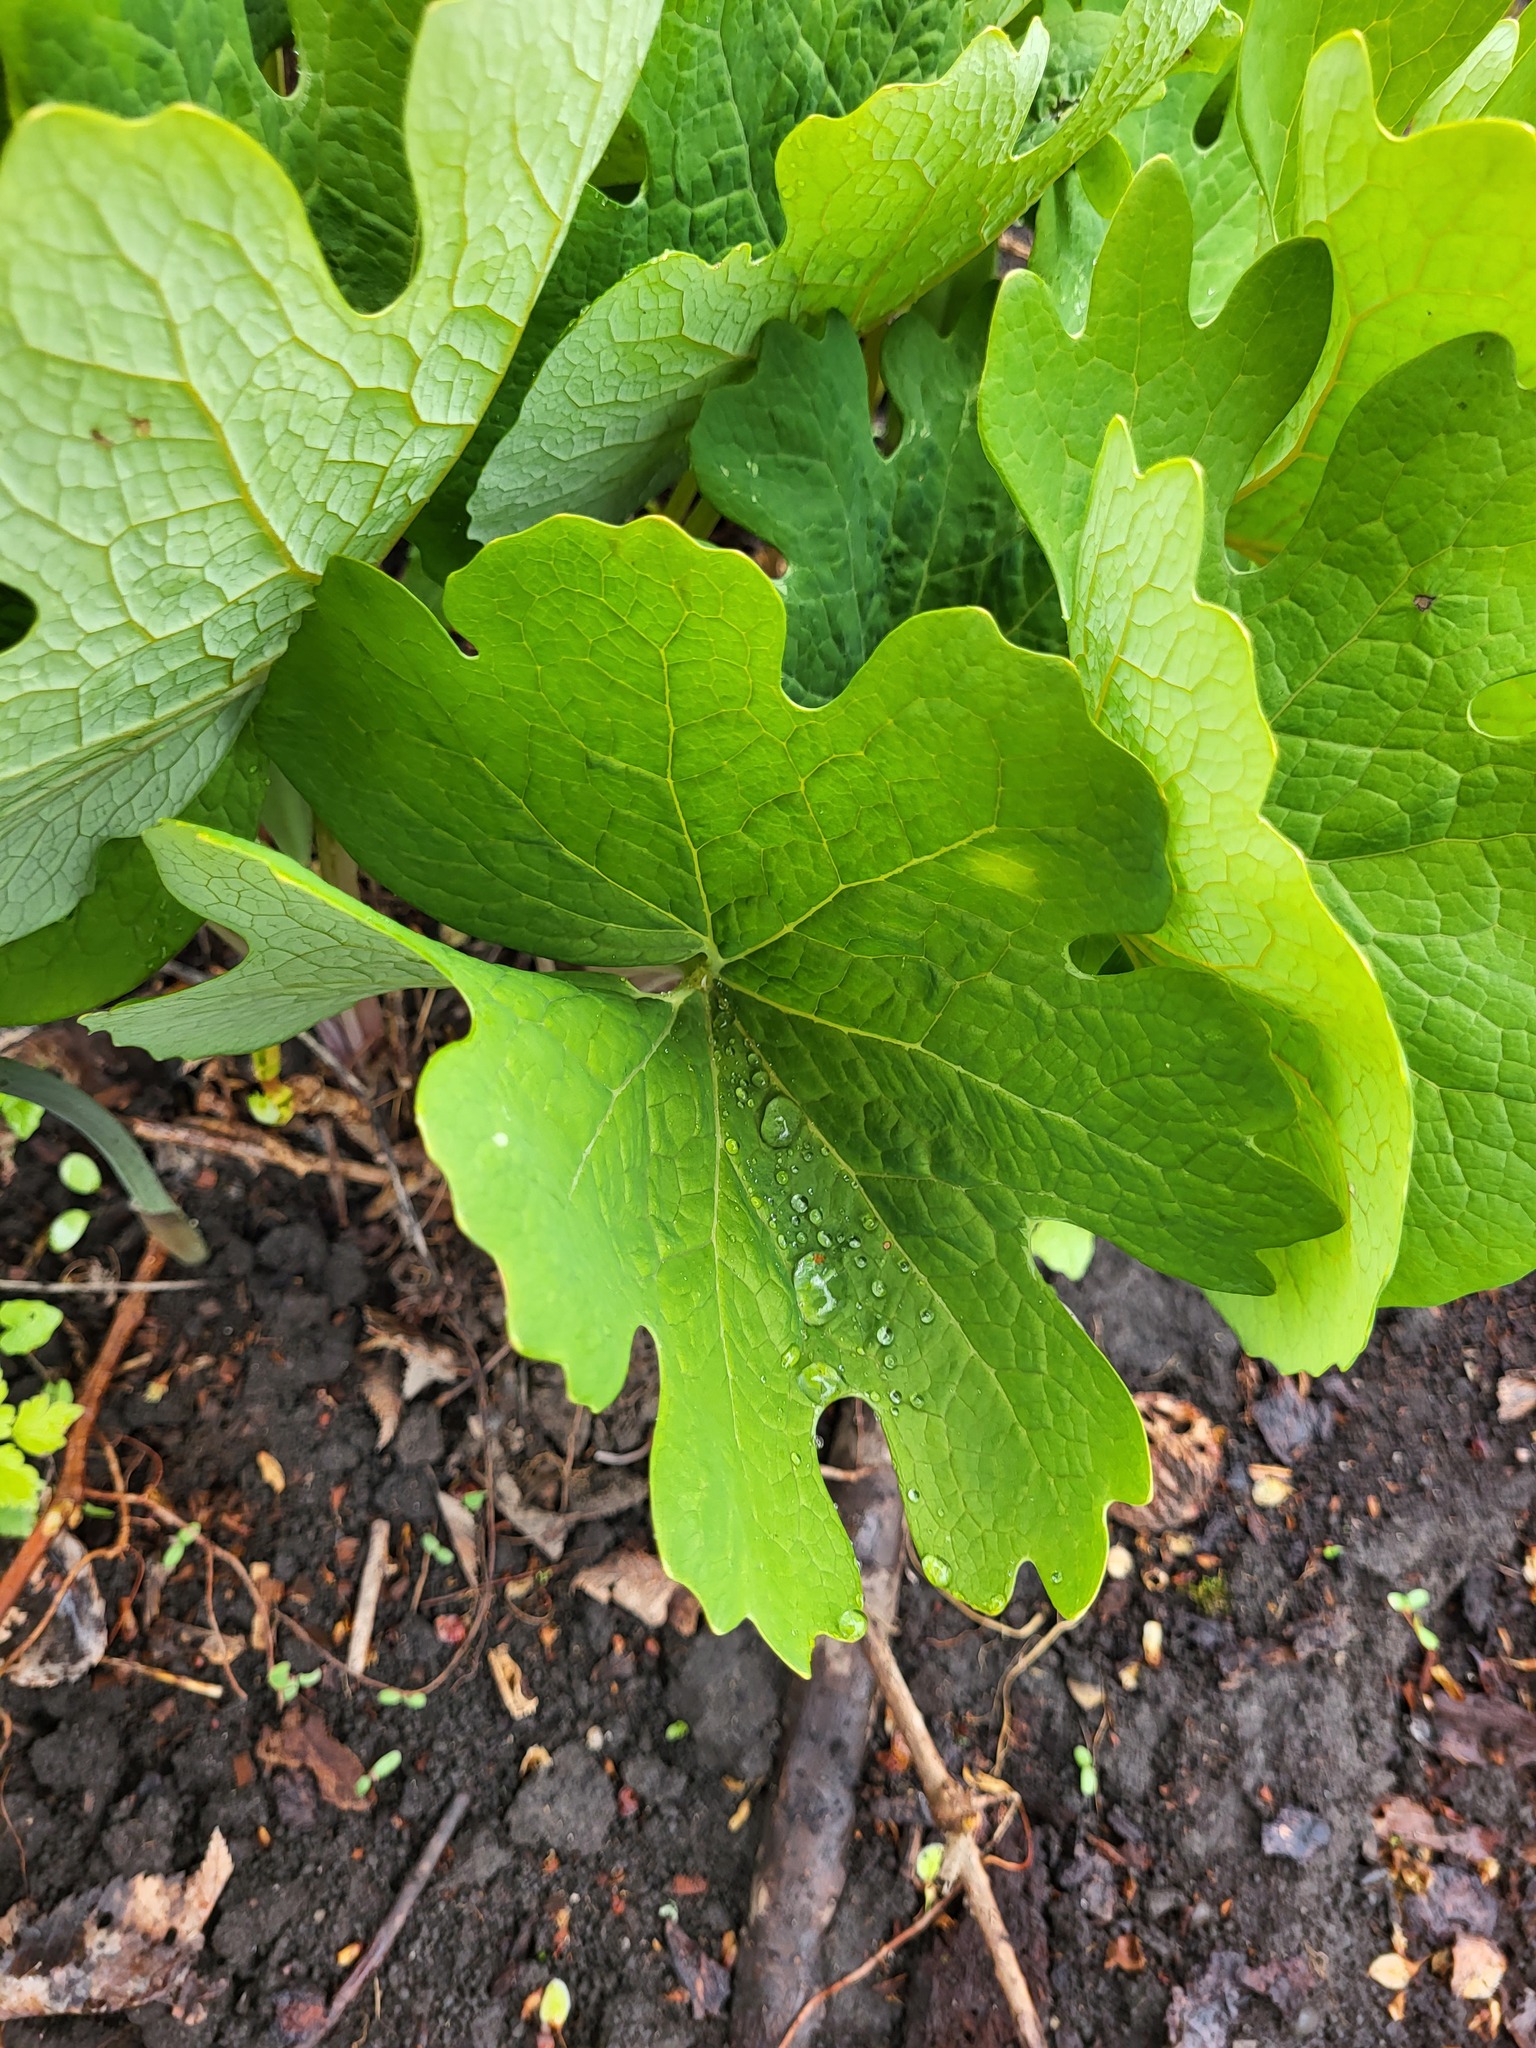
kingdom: Plantae
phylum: Tracheophyta
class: Magnoliopsida
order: Ranunculales
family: Papaveraceae
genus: Sanguinaria
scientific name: Sanguinaria canadensis
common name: Bloodroot
